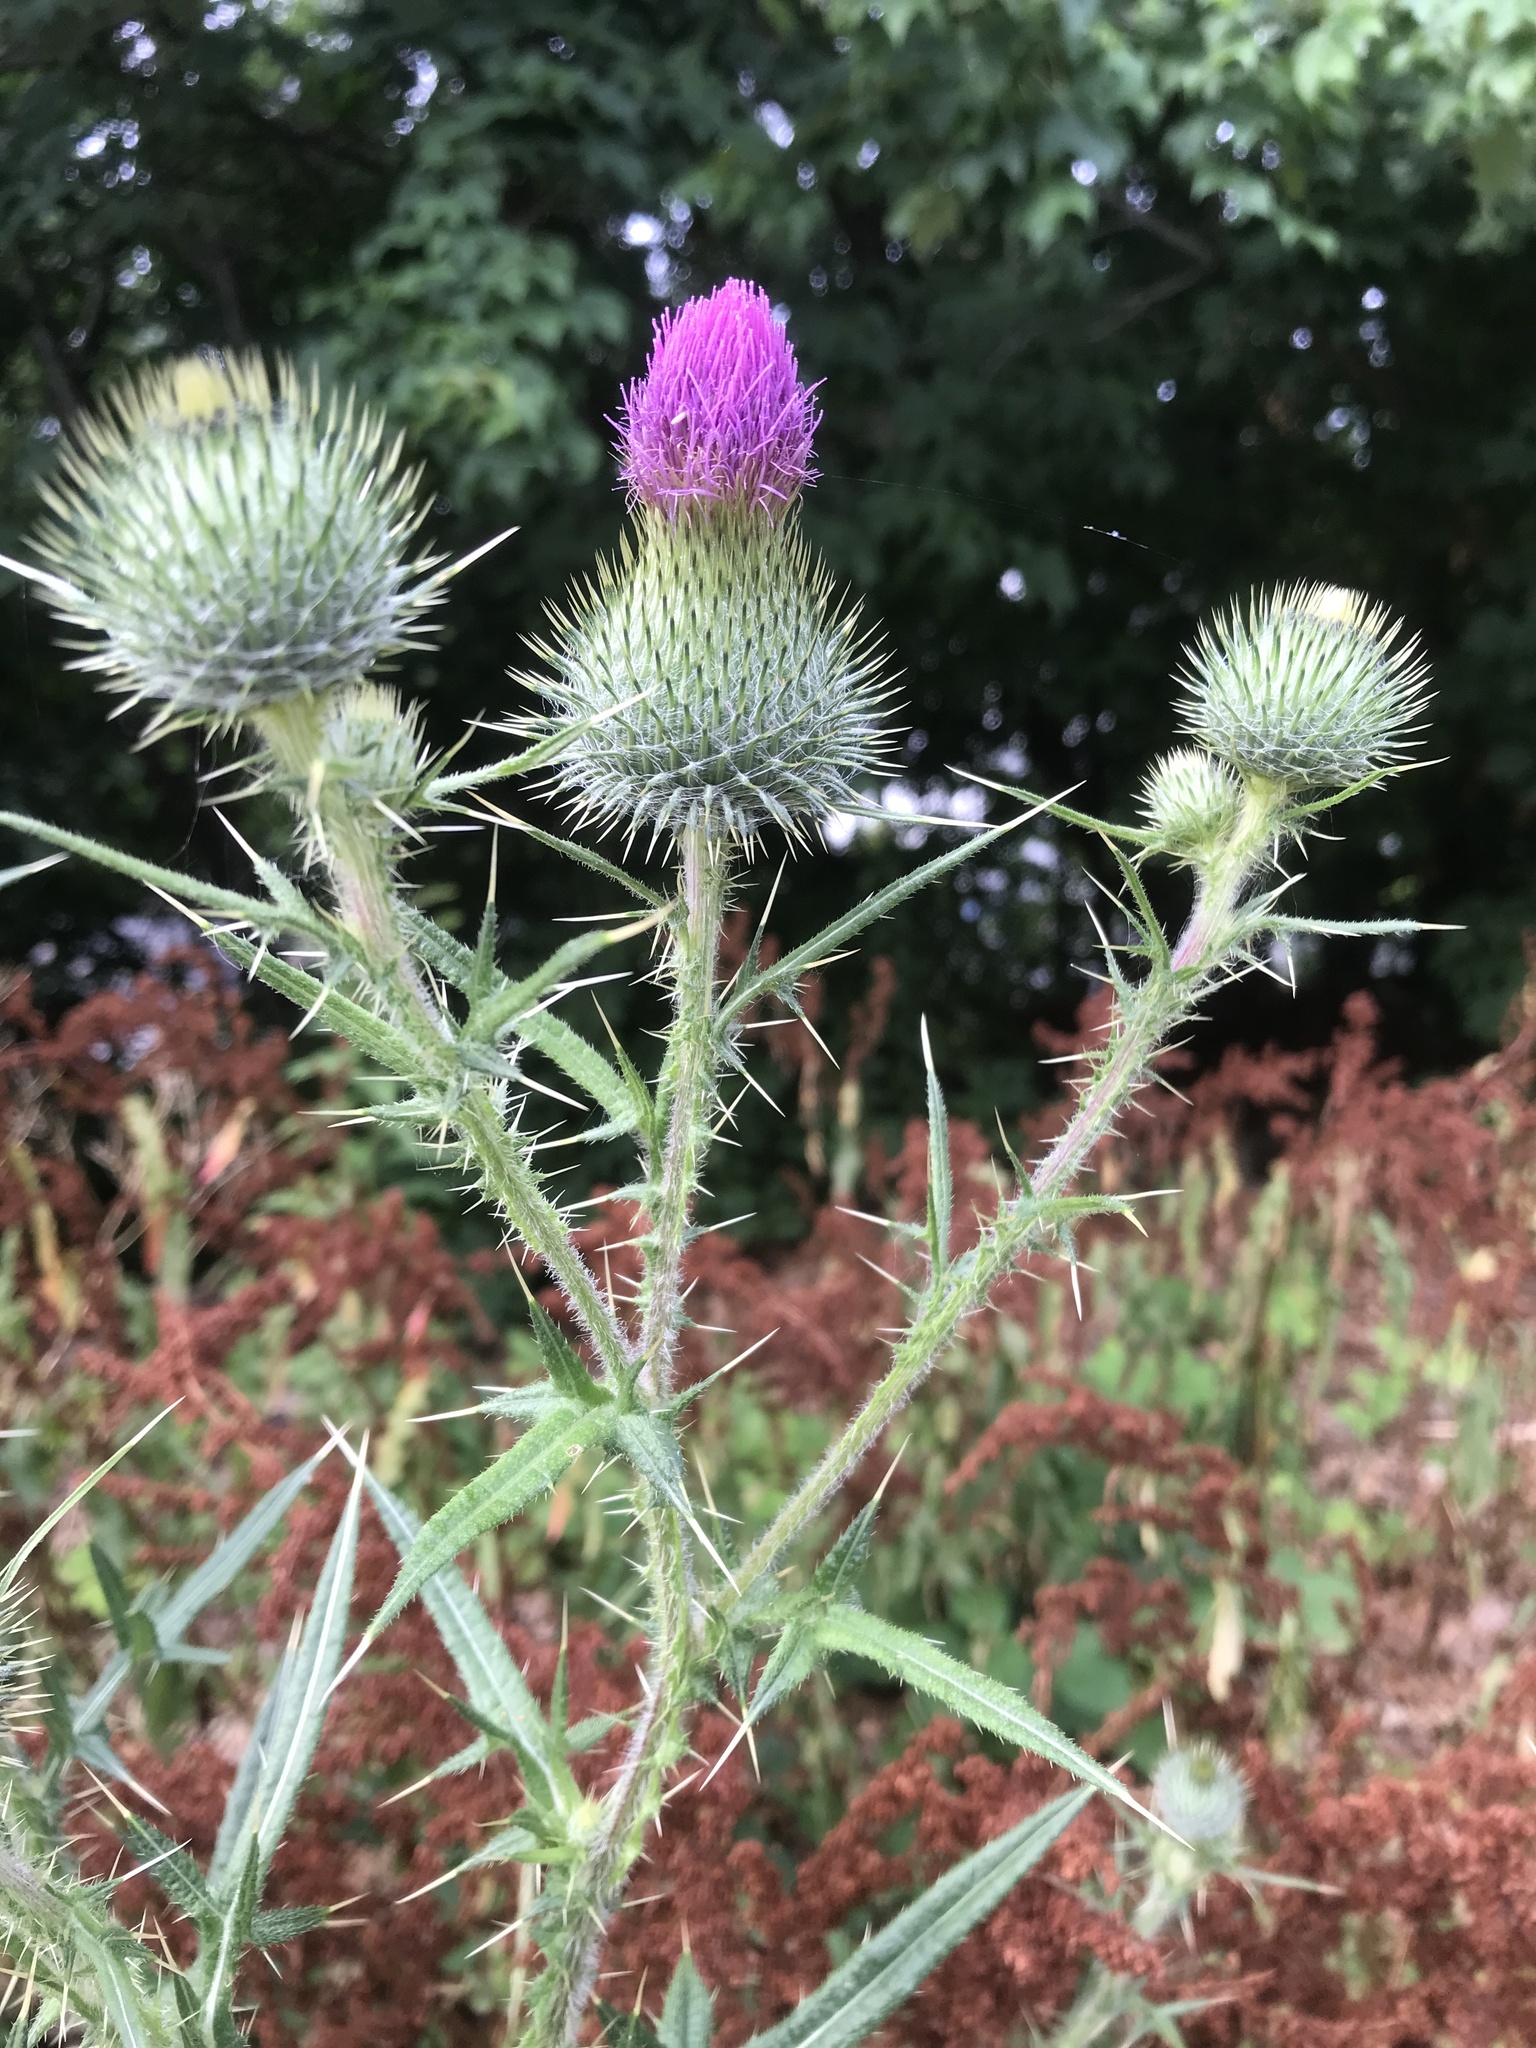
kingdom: Plantae
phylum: Tracheophyta
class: Magnoliopsida
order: Asterales
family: Asteraceae
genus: Cirsium
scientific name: Cirsium vulgare
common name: Bull thistle
